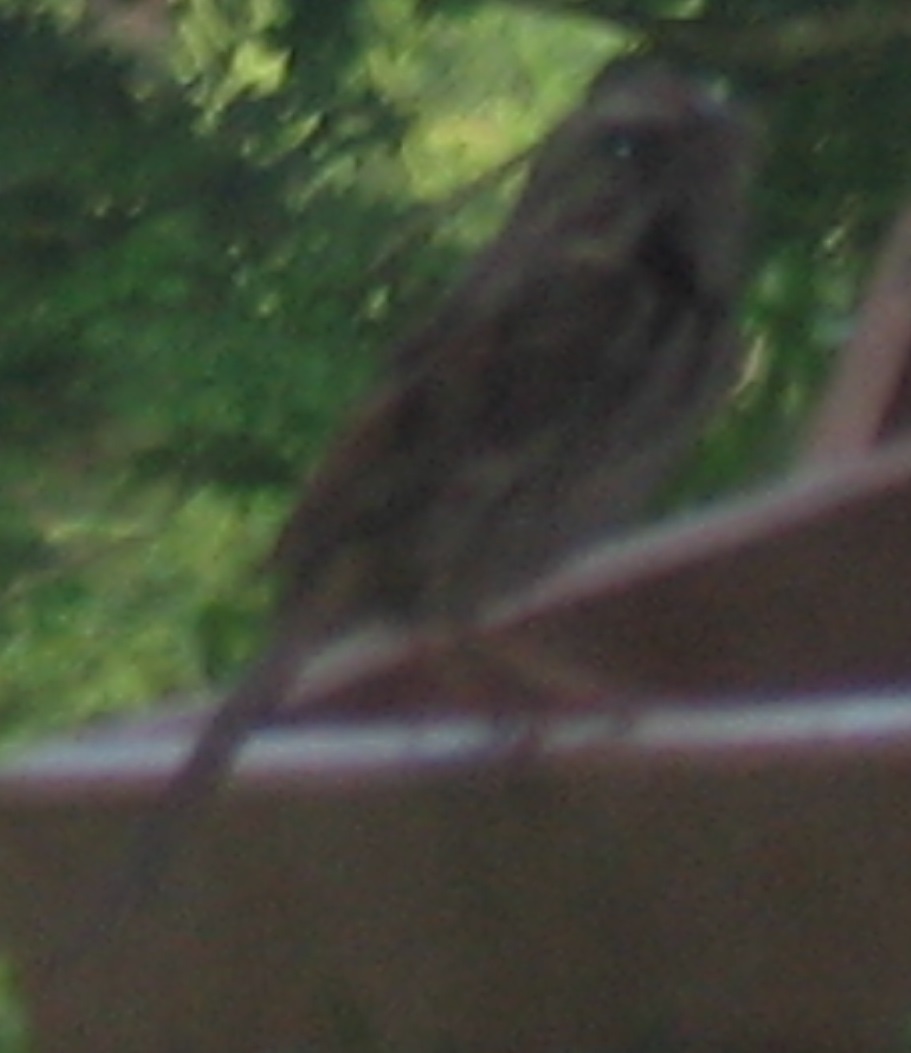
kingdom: Animalia
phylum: Chordata
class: Aves
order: Passeriformes
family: Passerellidae
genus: Melospiza
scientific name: Melospiza melodia
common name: Song sparrow
